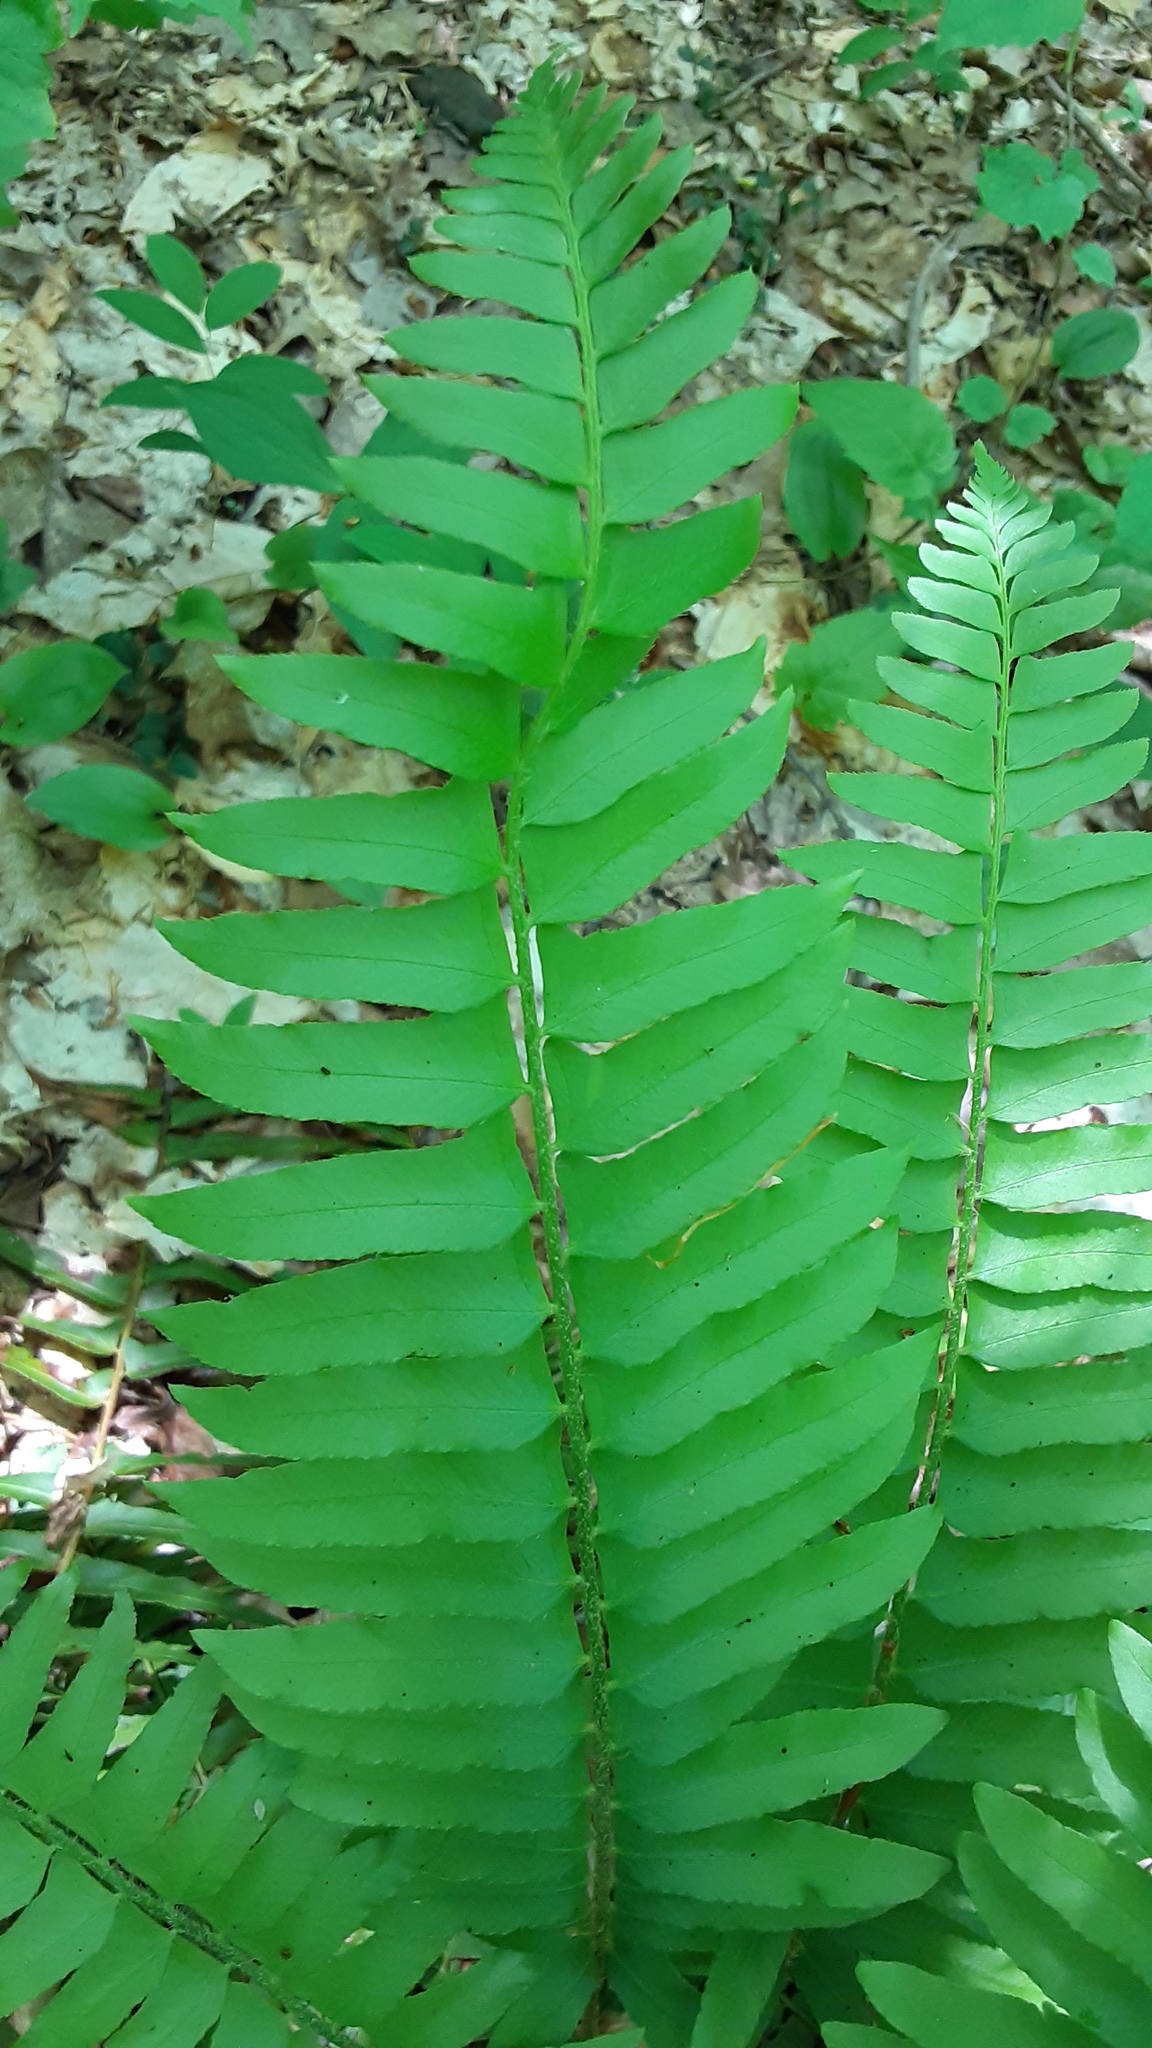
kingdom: Plantae
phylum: Tracheophyta
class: Polypodiopsida
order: Polypodiales
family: Dryopteridaceae
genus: Polystichum
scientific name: Polystichum acrostichoides
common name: Christmas fern
